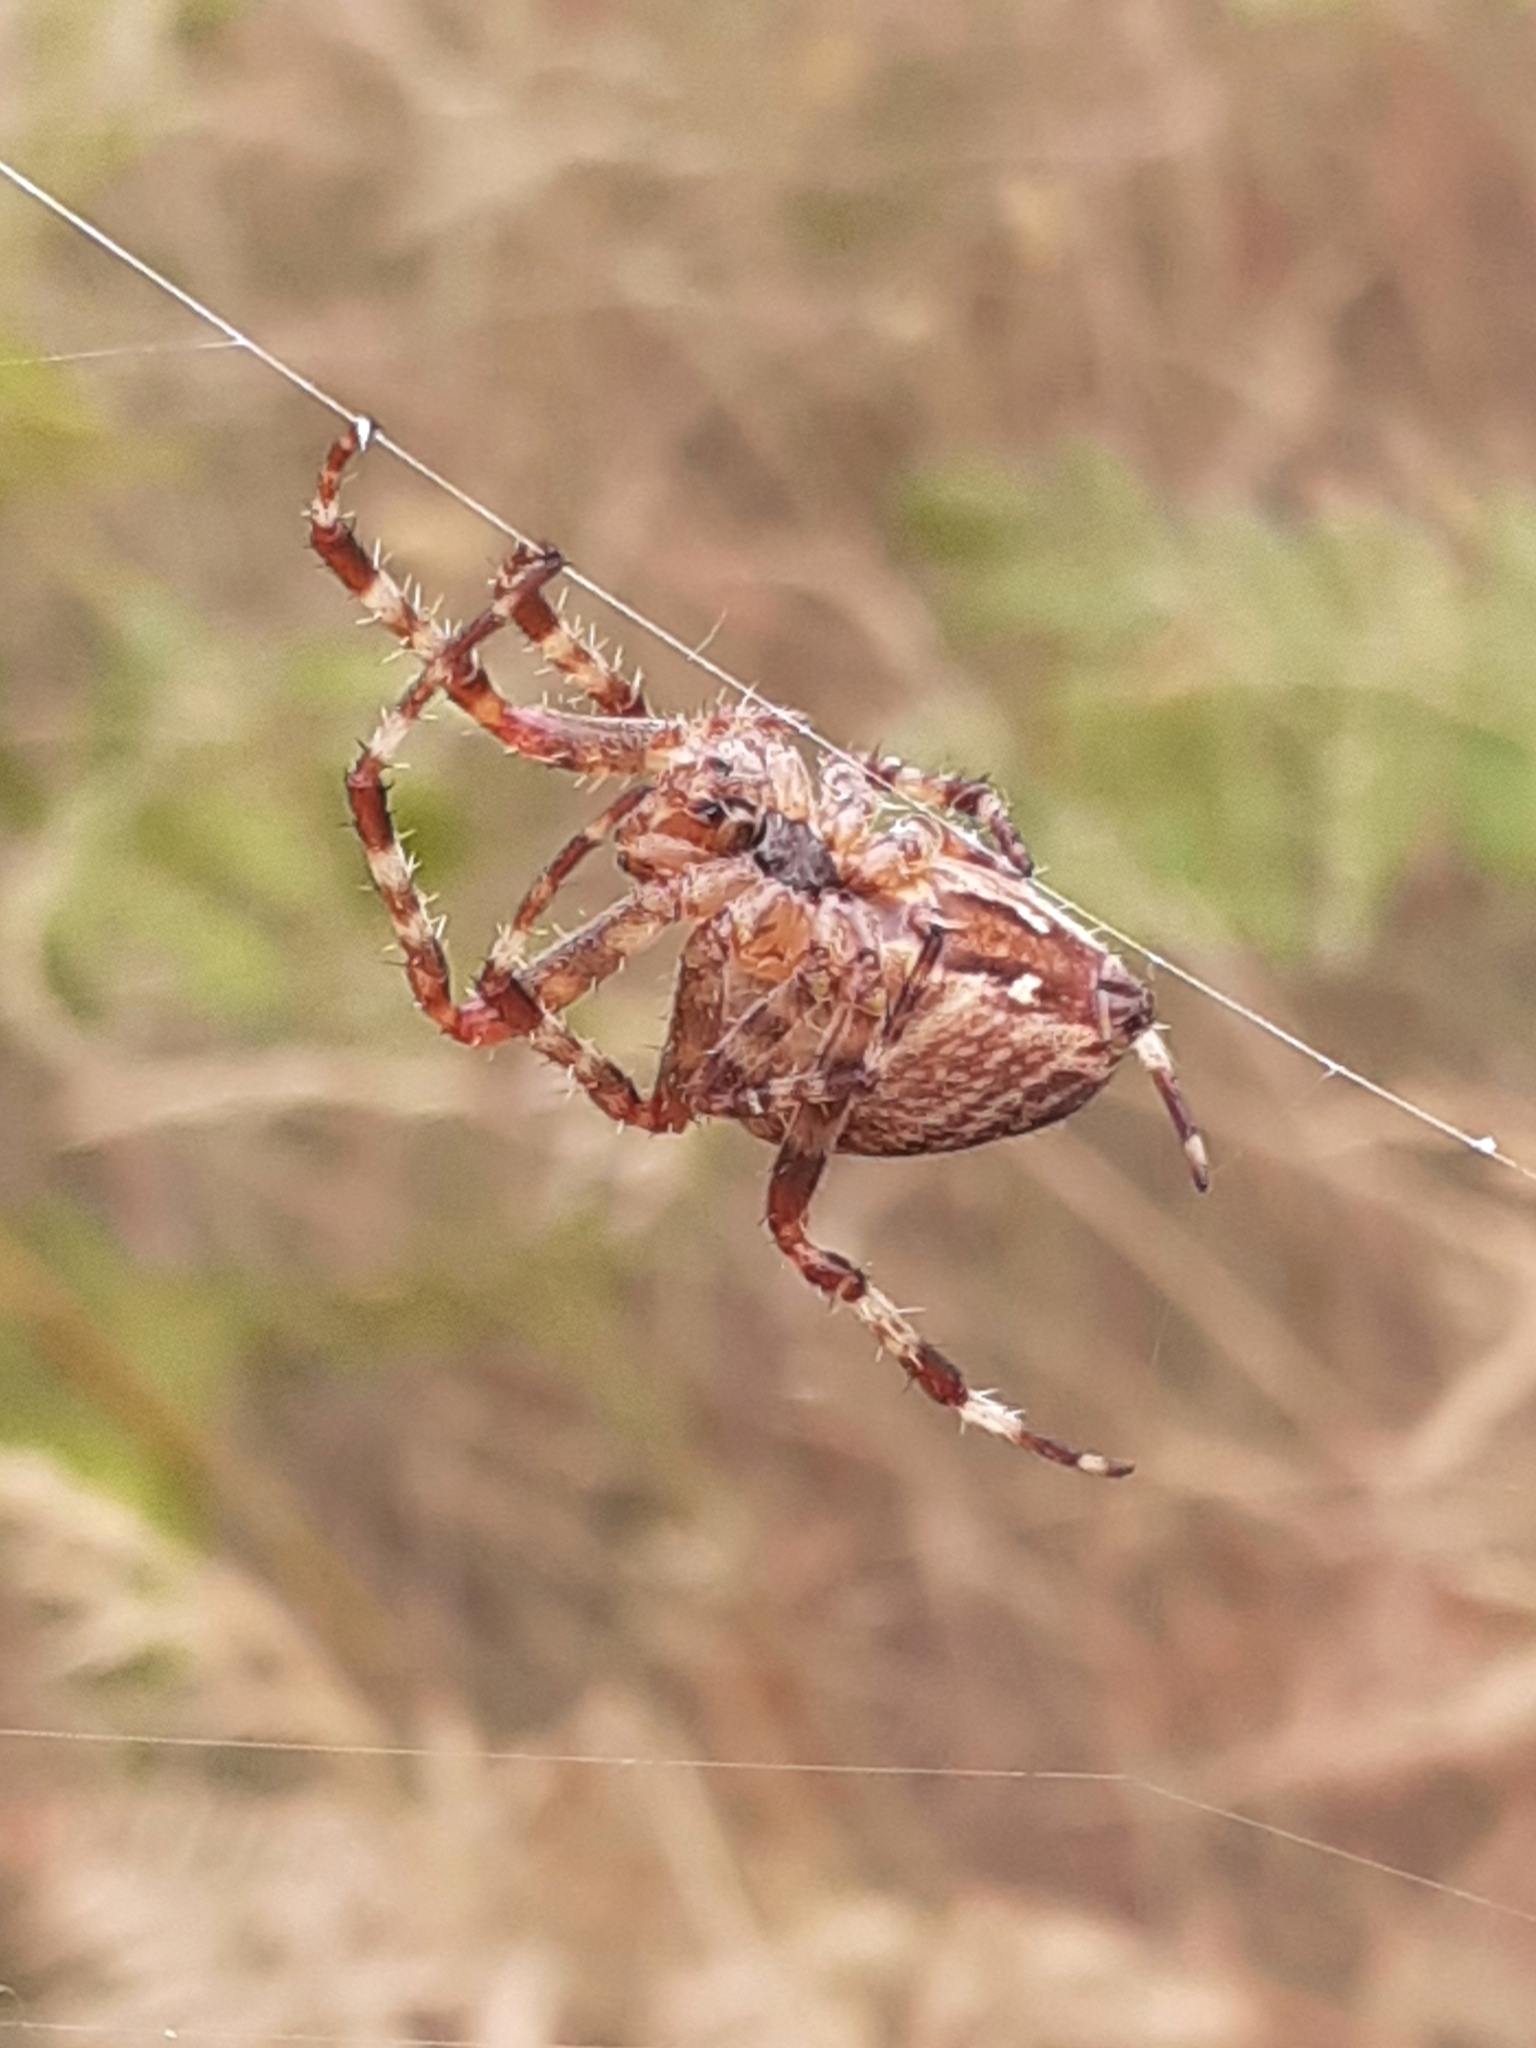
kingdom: Animalia
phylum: Arthropoda
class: Arachnida
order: Araneae
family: Araneidae
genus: Araneus
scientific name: Araneus diadematus
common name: Cross orbweaver
